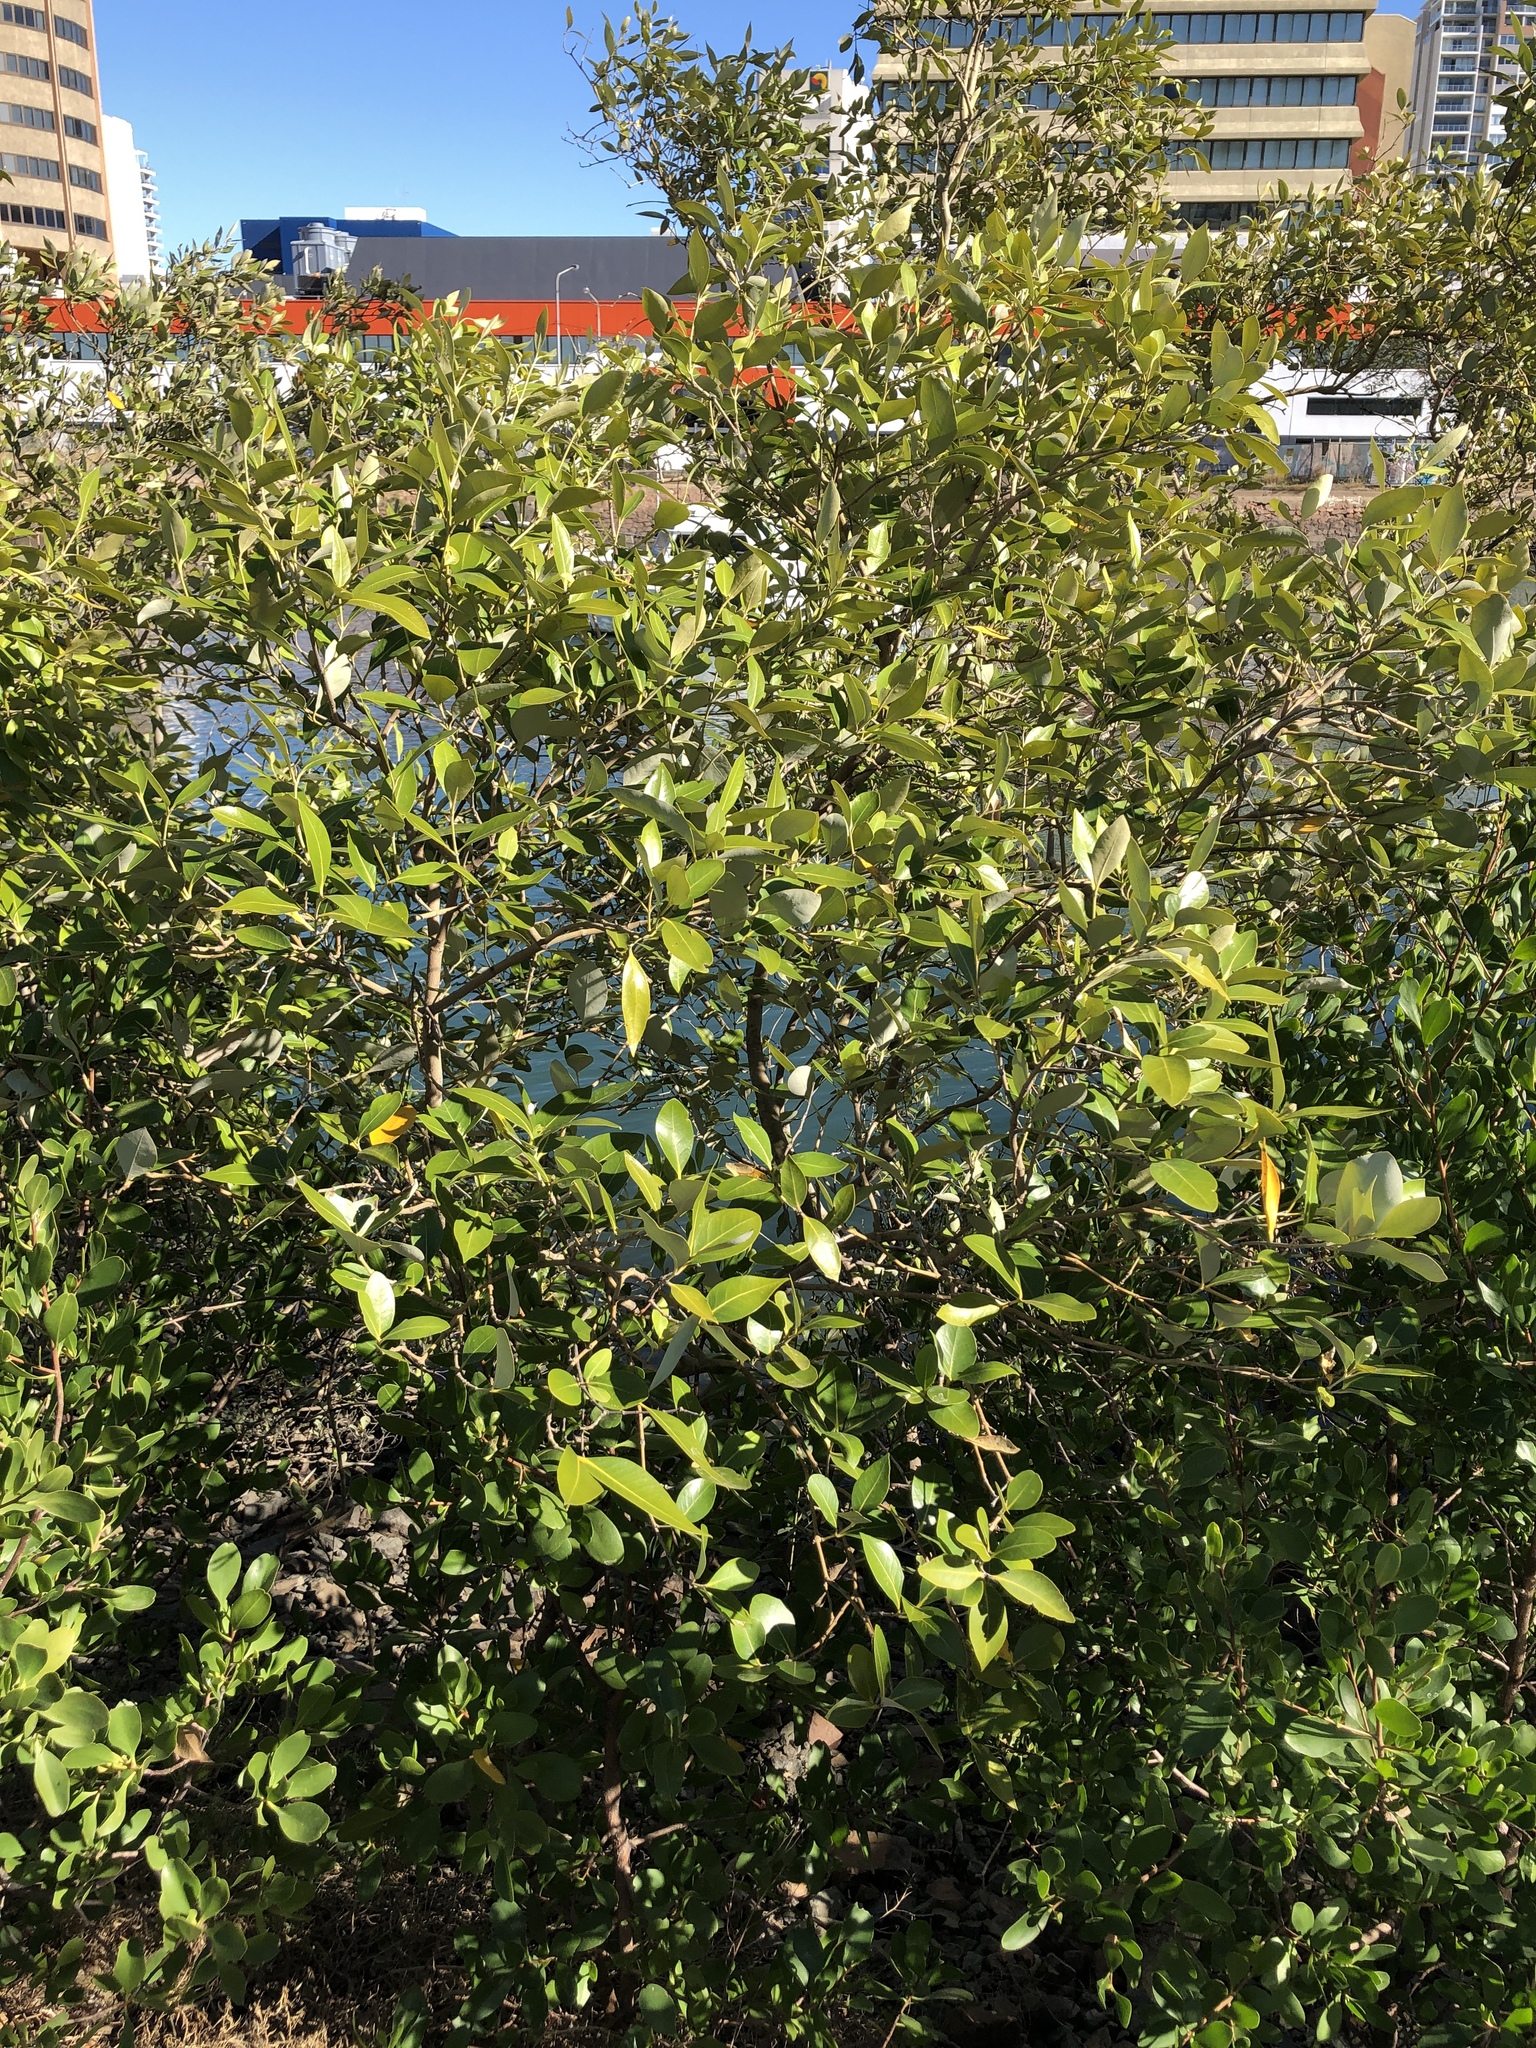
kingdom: Plantae
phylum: Tracheophyta
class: Magnoliopsida
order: Lamiales
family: Acanthaceae
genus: Avicennia
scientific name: Avicennia marina
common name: Gray mangrove
